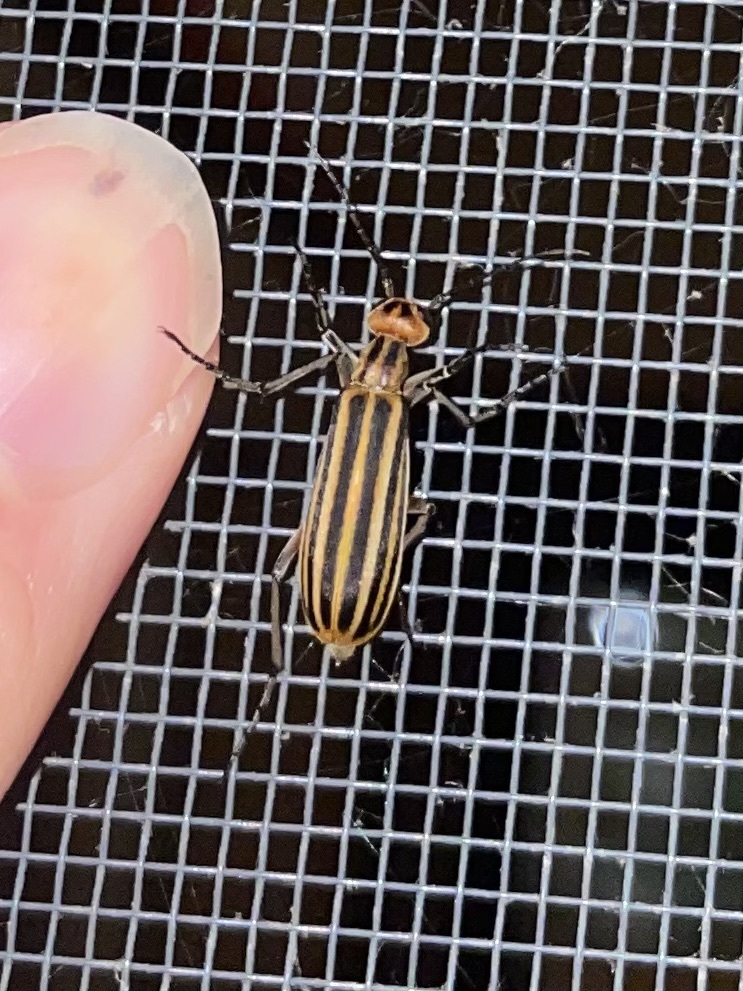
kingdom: Animalia
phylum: Arthropoda
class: Insecta
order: Coleoptera
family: Meloidae
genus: Epicauta
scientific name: Epicauta vittata
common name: Old-fashioned potato beetle
